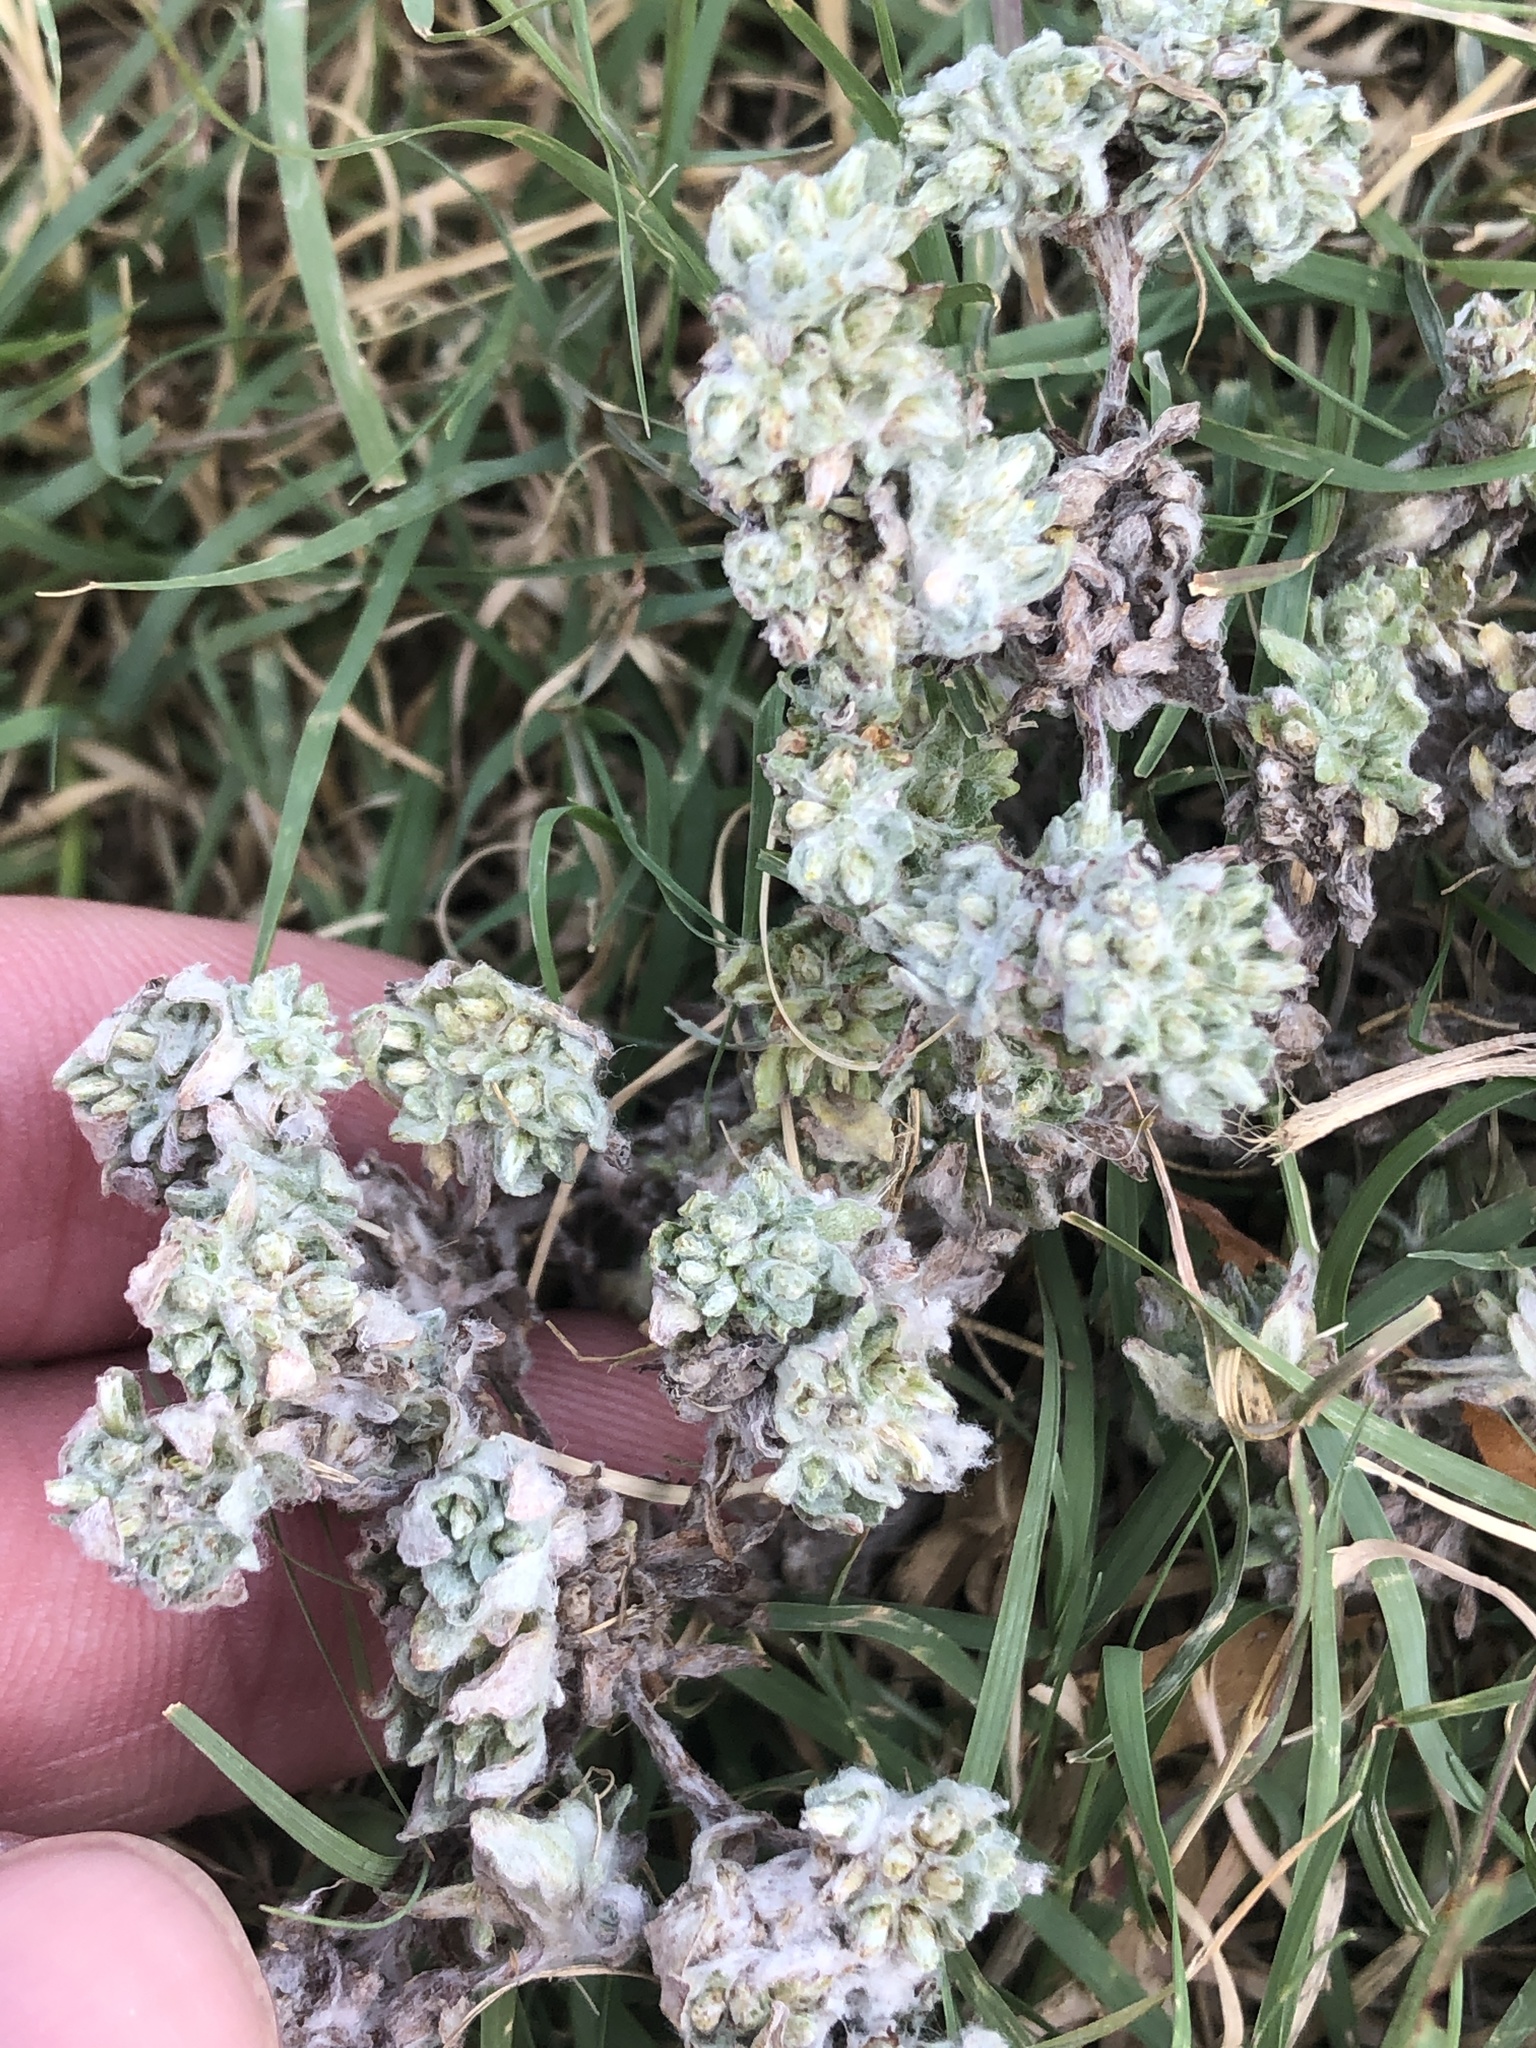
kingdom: Plantae
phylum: Tracheophyta
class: Magnoliopsida
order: Asterales
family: Asteraceae
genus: Diaperia
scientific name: Diaperia prolifera
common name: Big-head rabbit-tobacco
